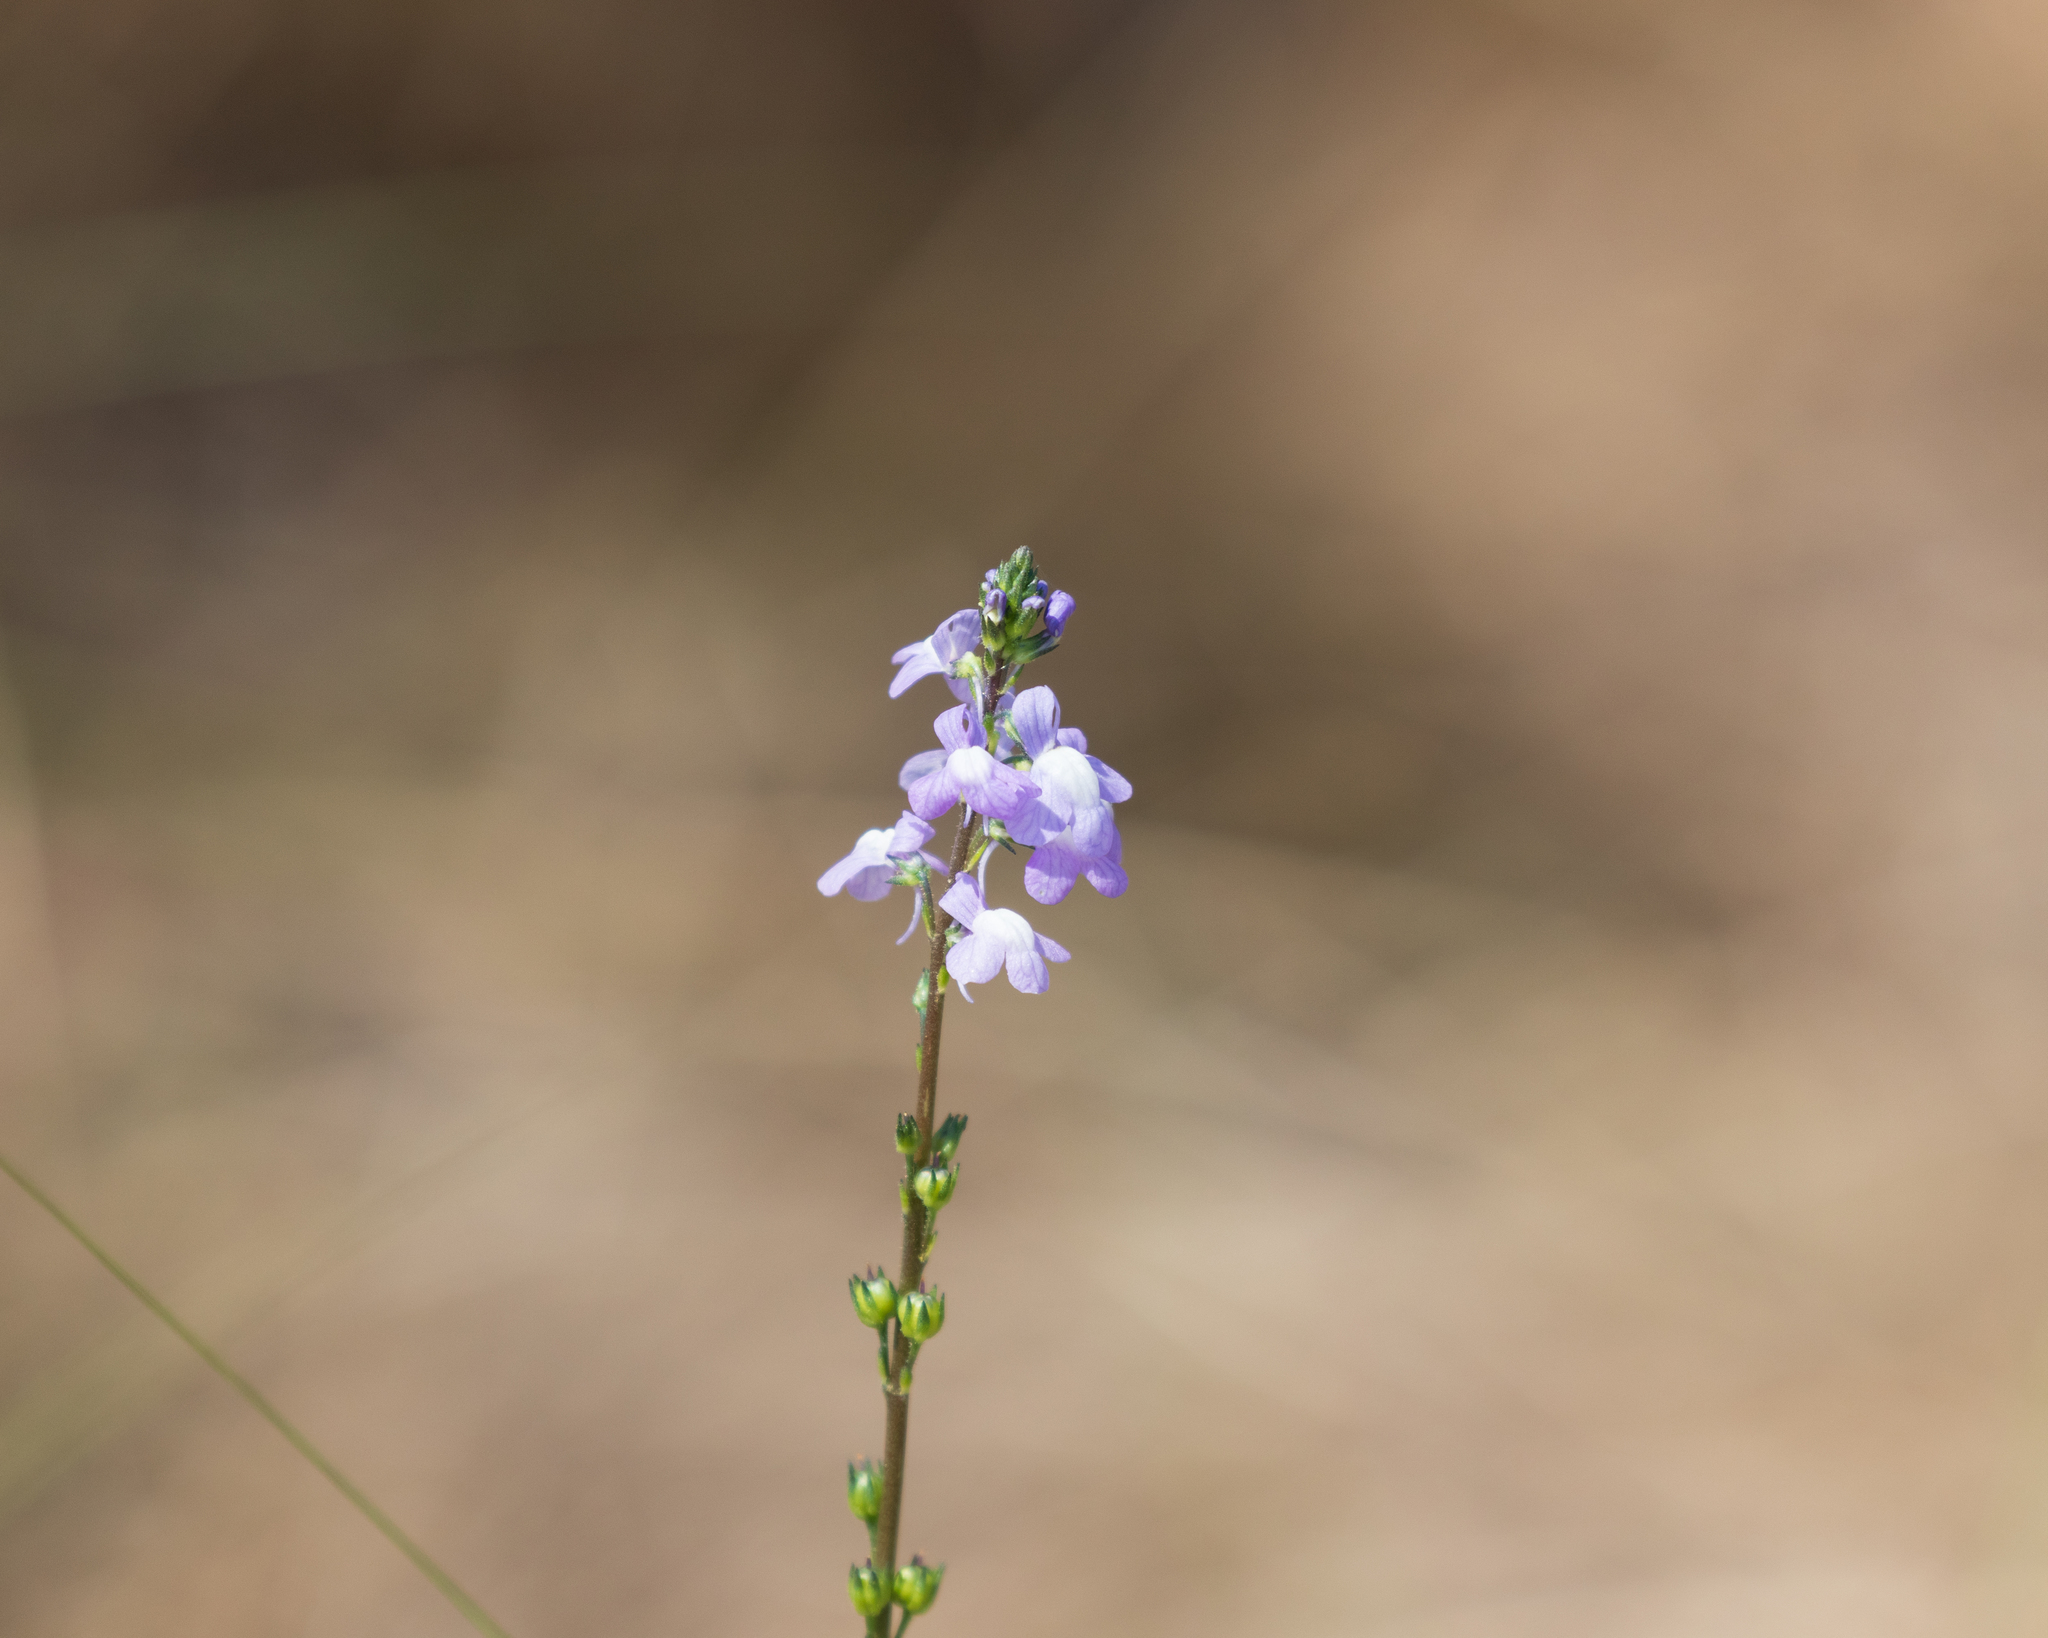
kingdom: Plantae
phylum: Tracheophyta
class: Magnoliopsida
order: Lamiales
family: Plantaginaceae
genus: Nuttallanthus
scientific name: Nuttallanthus canadensis
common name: Blue toadflax
